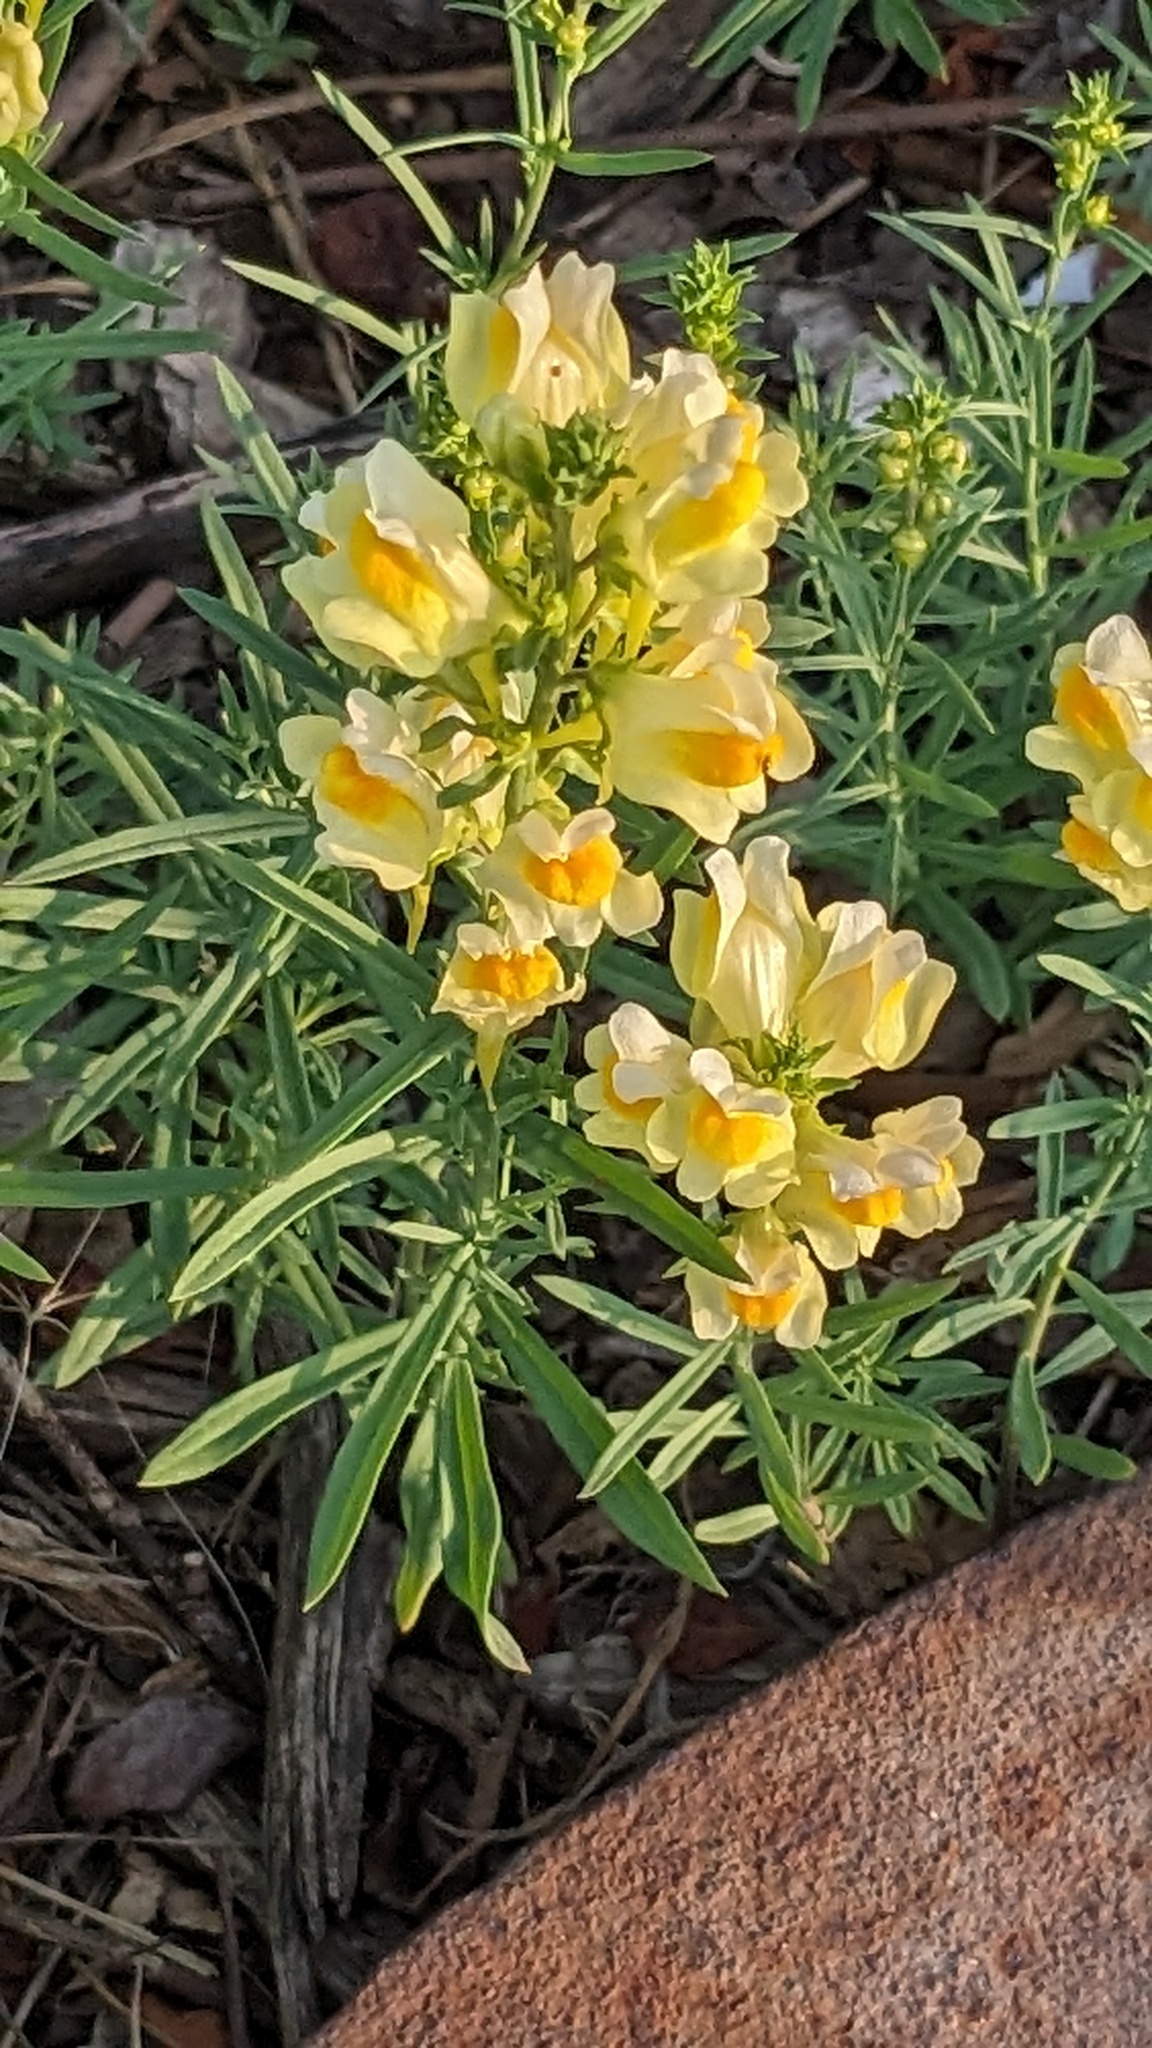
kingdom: Plantae
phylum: Tracheophyta
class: Magnoliopsida
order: Lamiales
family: Plantaginaceae
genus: Linaria
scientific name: Linaria vulgaris
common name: Butter and eggs
